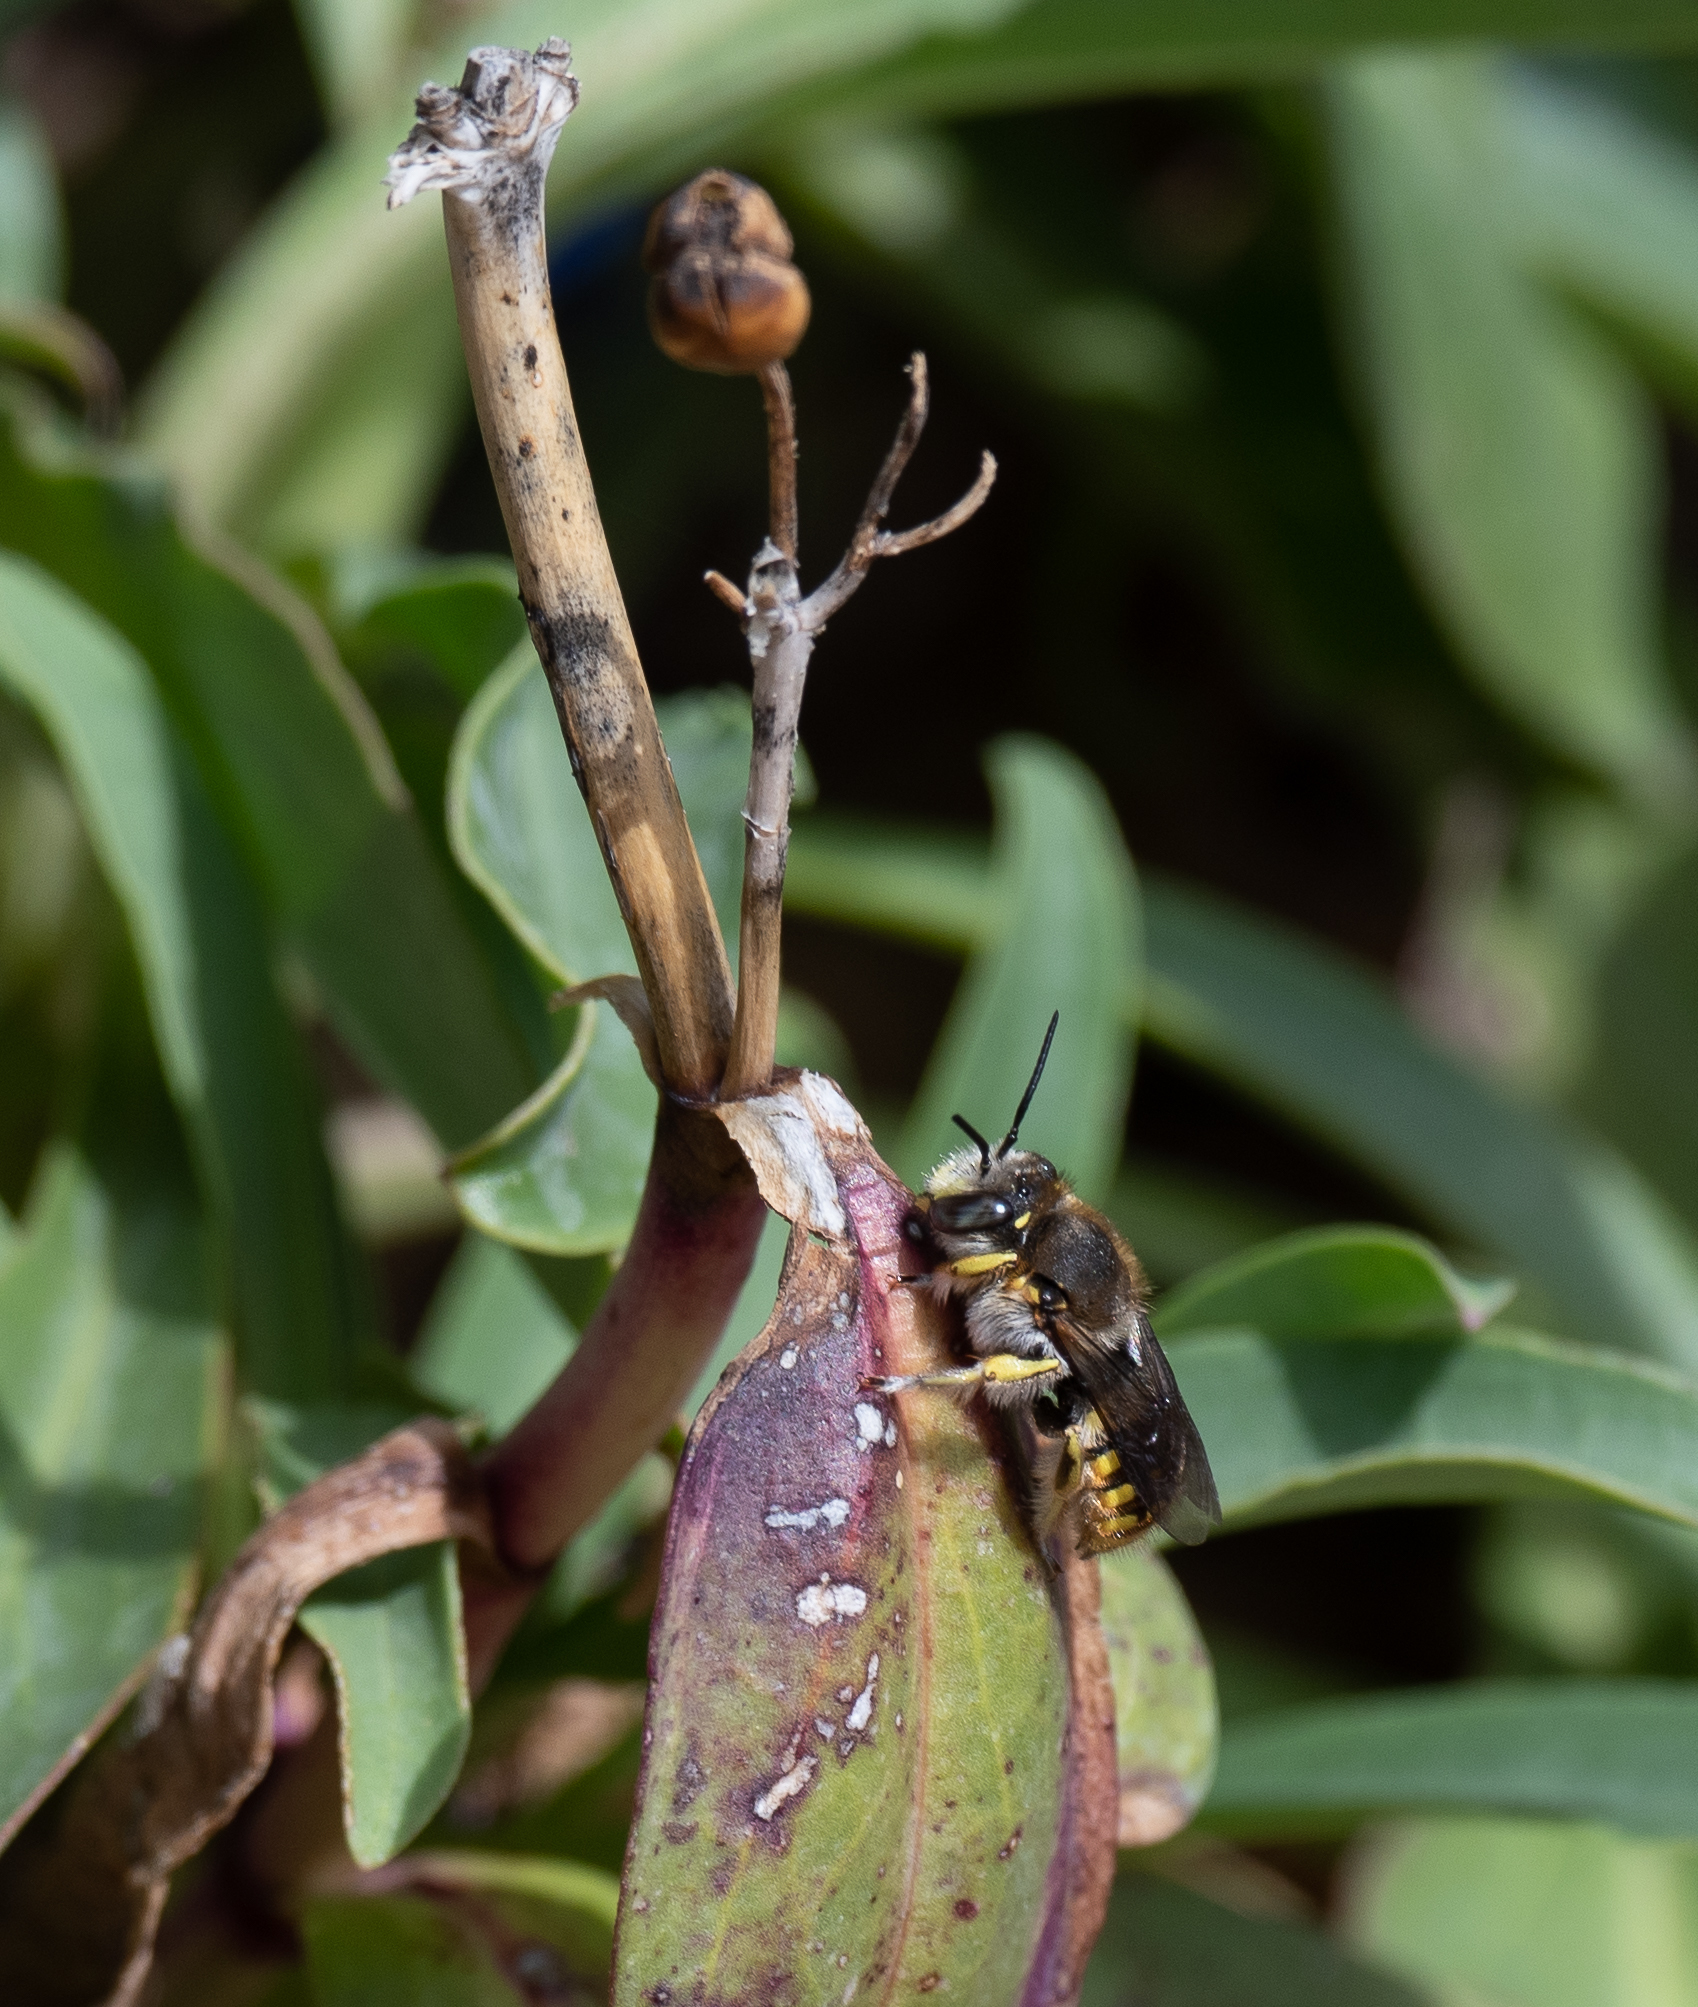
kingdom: Animalia
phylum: Arthropoda
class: Insecta
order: Hymenoptera
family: Megachilidae
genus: Anthidium
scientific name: Anthidium manicatum
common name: Wool carder bee
